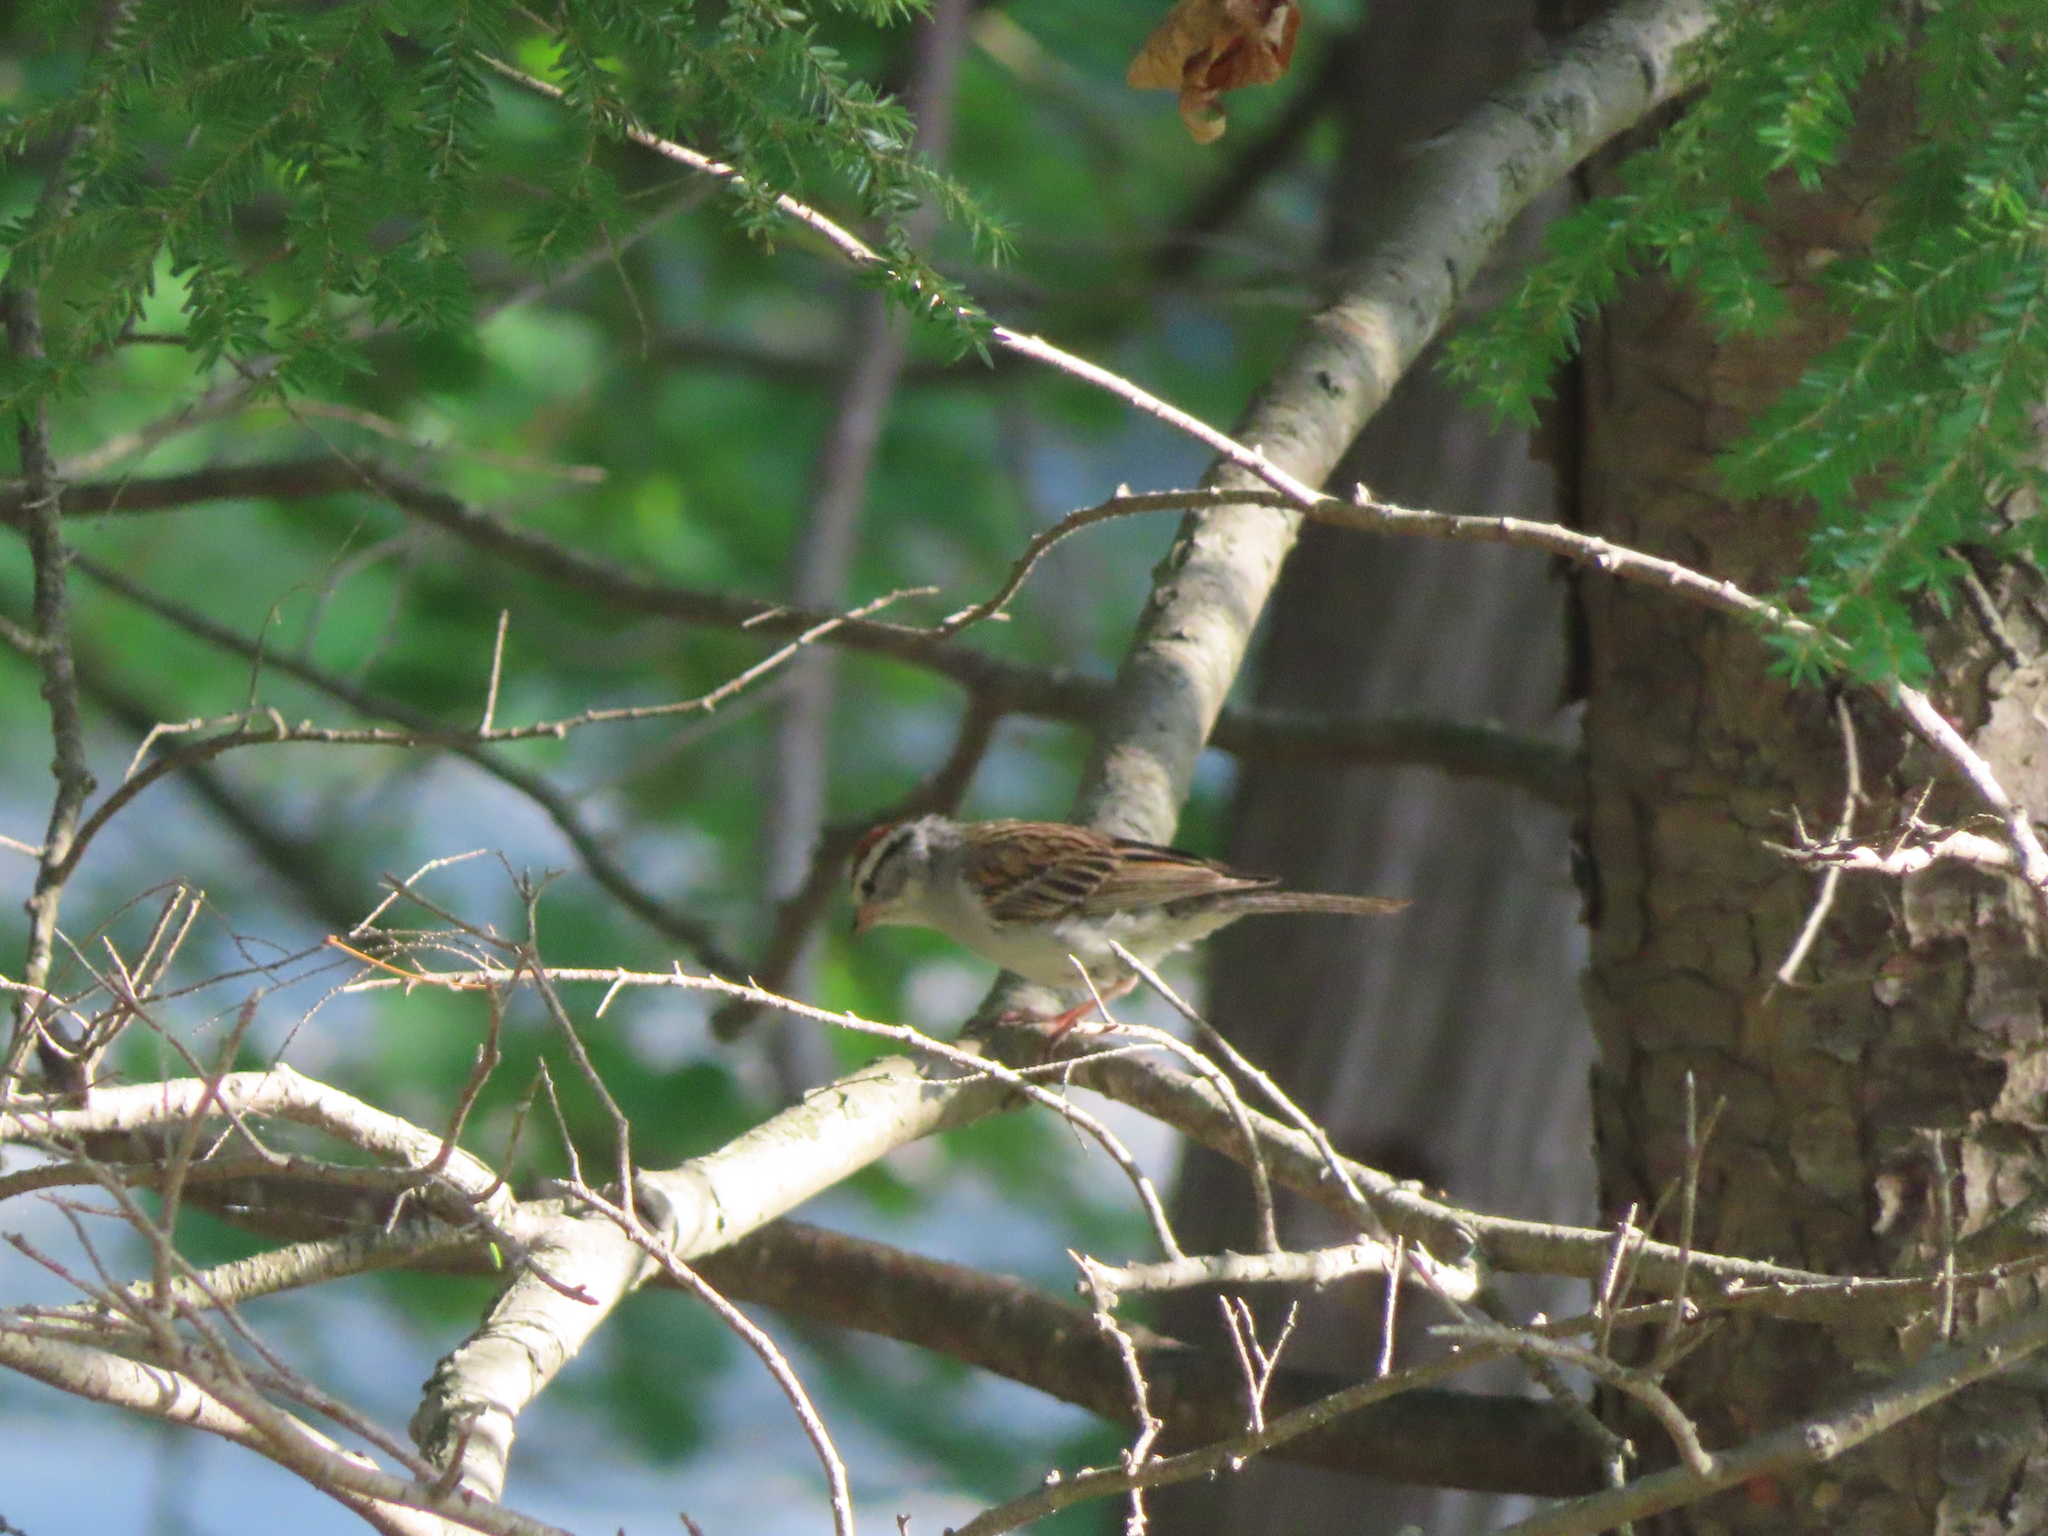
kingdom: Animalia
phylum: Chordata
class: Aves
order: Passeriformes
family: Passerellidae
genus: Spizella
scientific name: Spizella passerina
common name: Chipping sparrow
